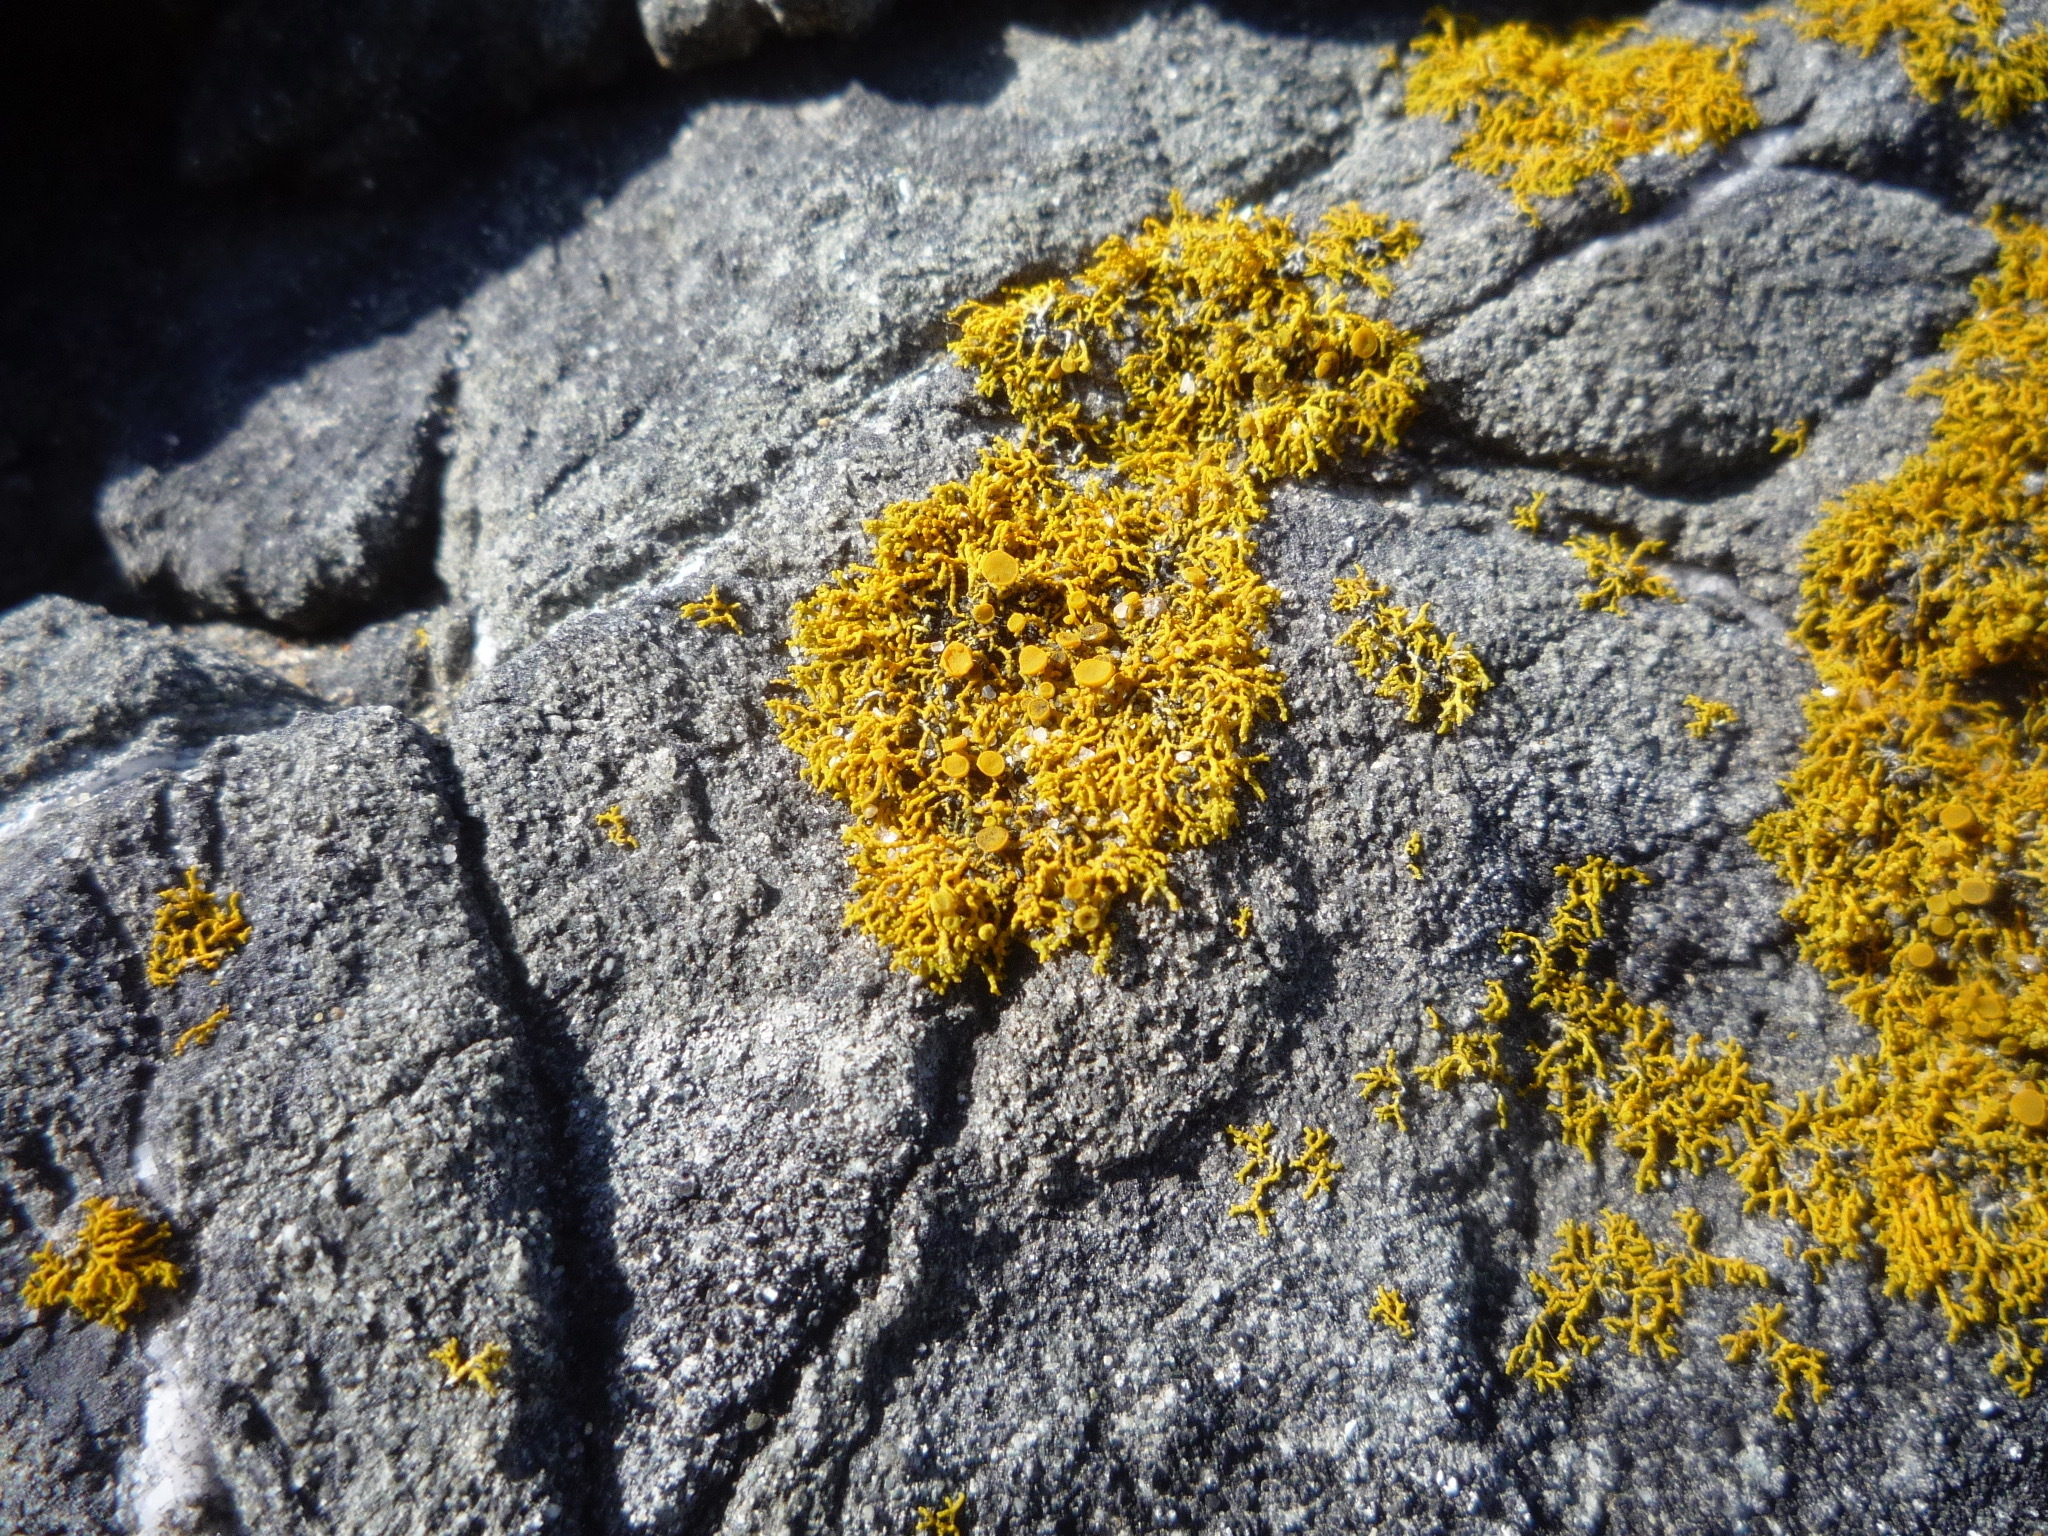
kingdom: Fungi
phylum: Ascomycota
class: Lecanoromycetes
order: Teloschistales
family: Teloschistaceae
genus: Polycauliona
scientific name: Polycauliona coralloides
